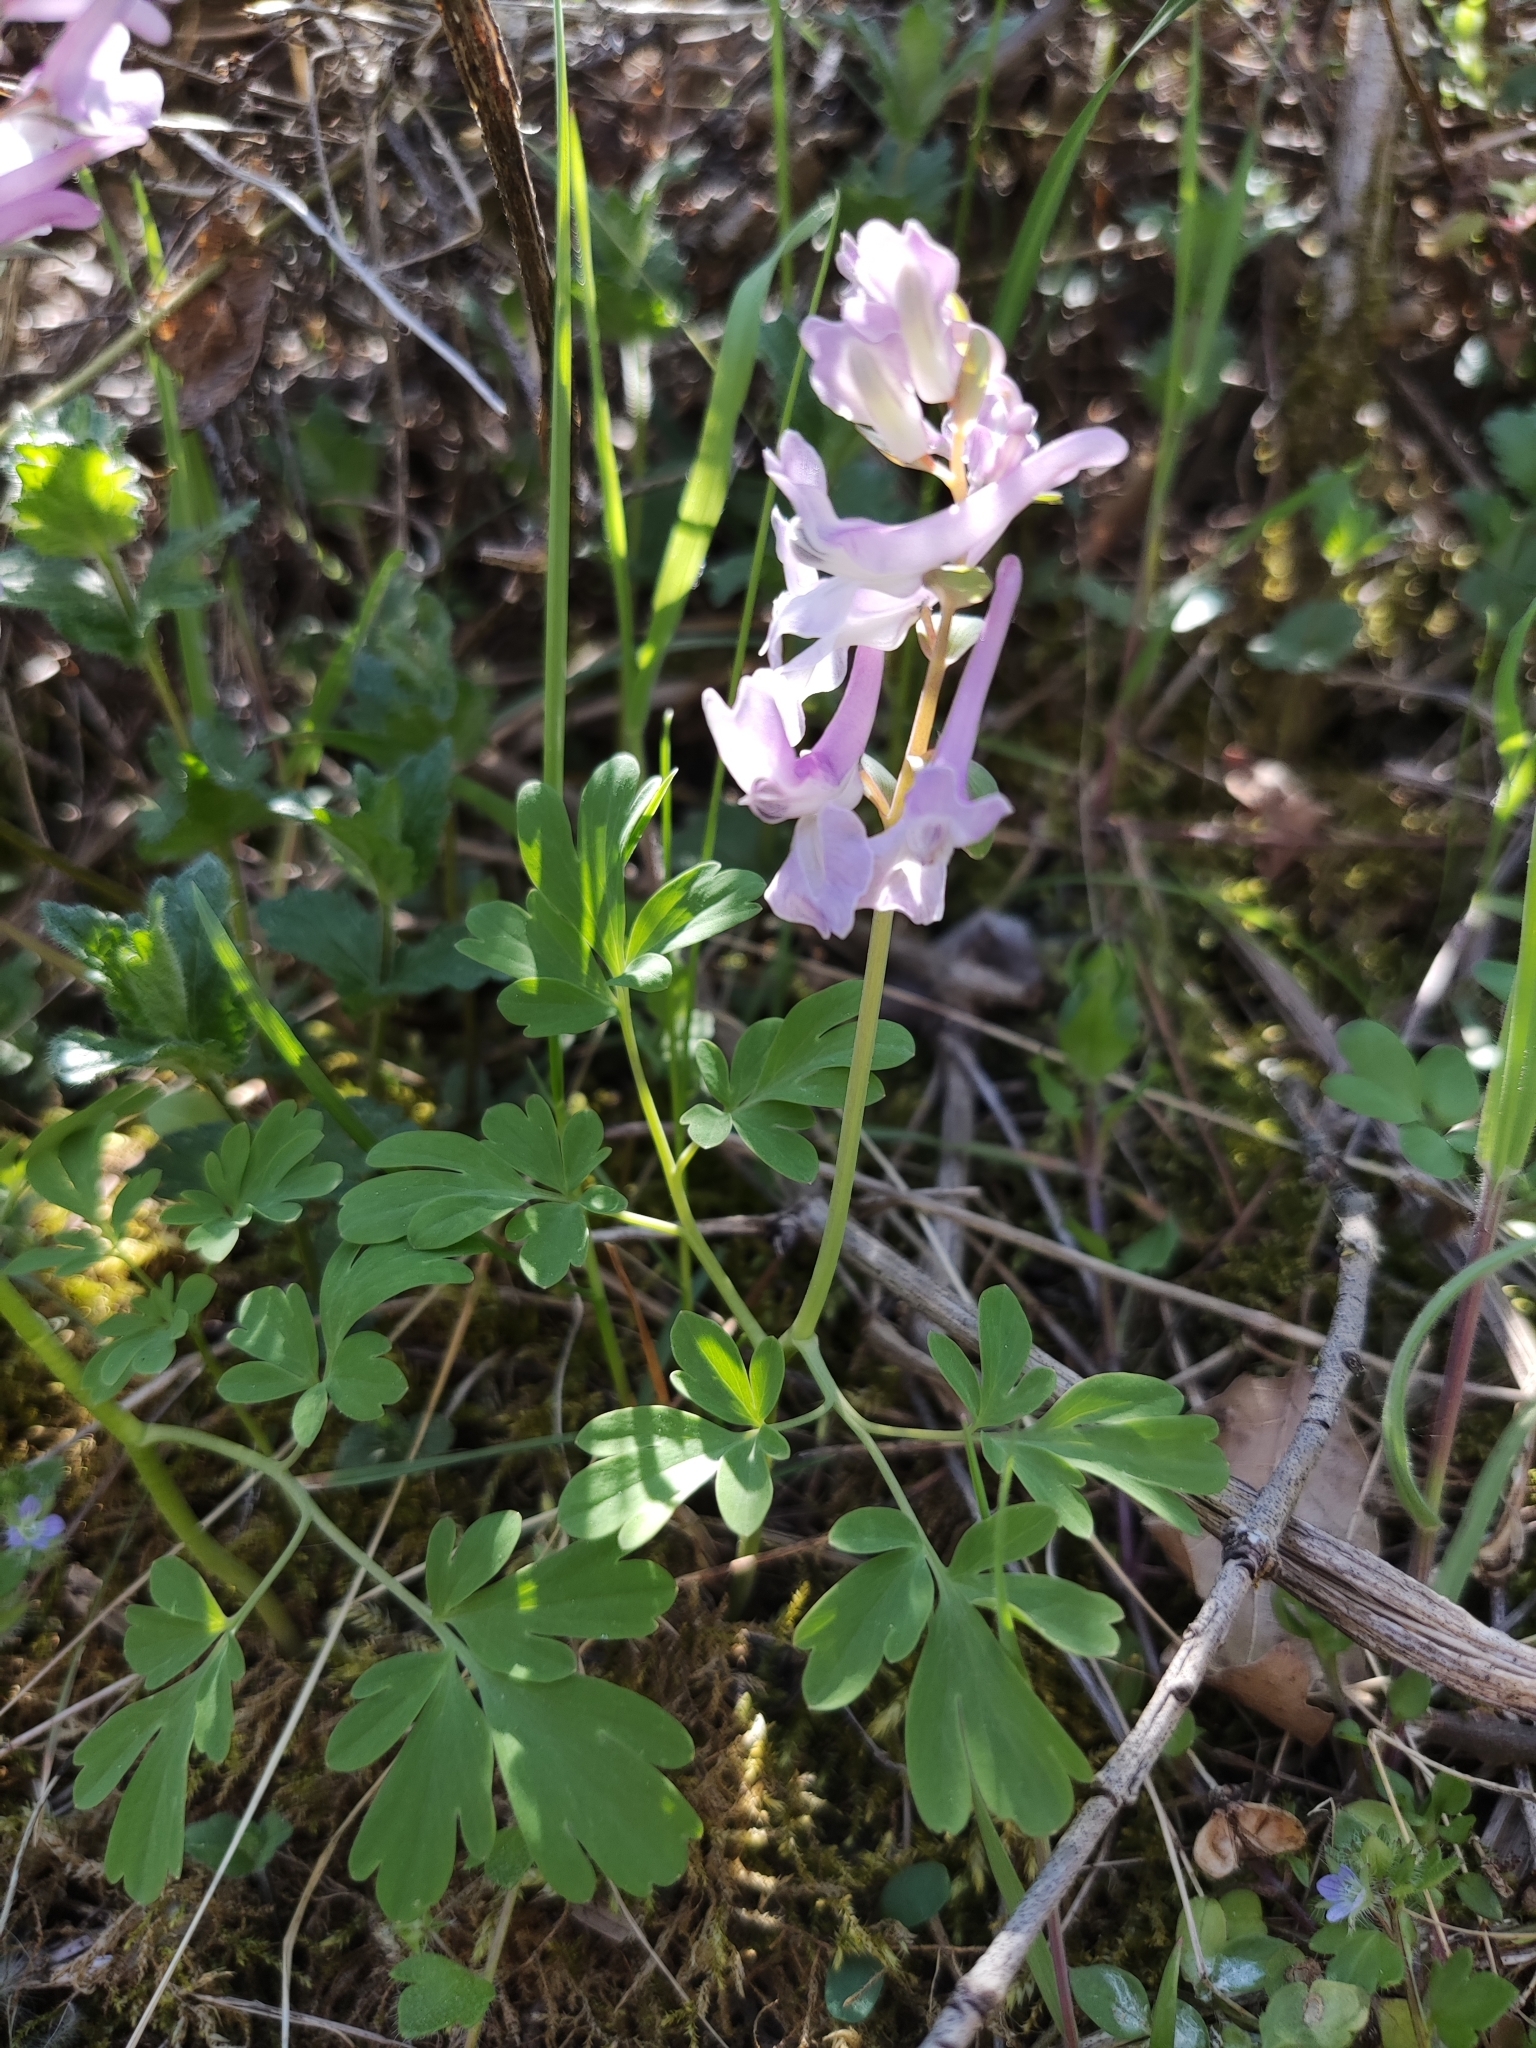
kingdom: Plantae
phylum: Tracheophyta
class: Magnoliopsida
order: Ranunculales
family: Papaveraceae
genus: Corydalis
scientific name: Corydalis cava
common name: Hollowroot
